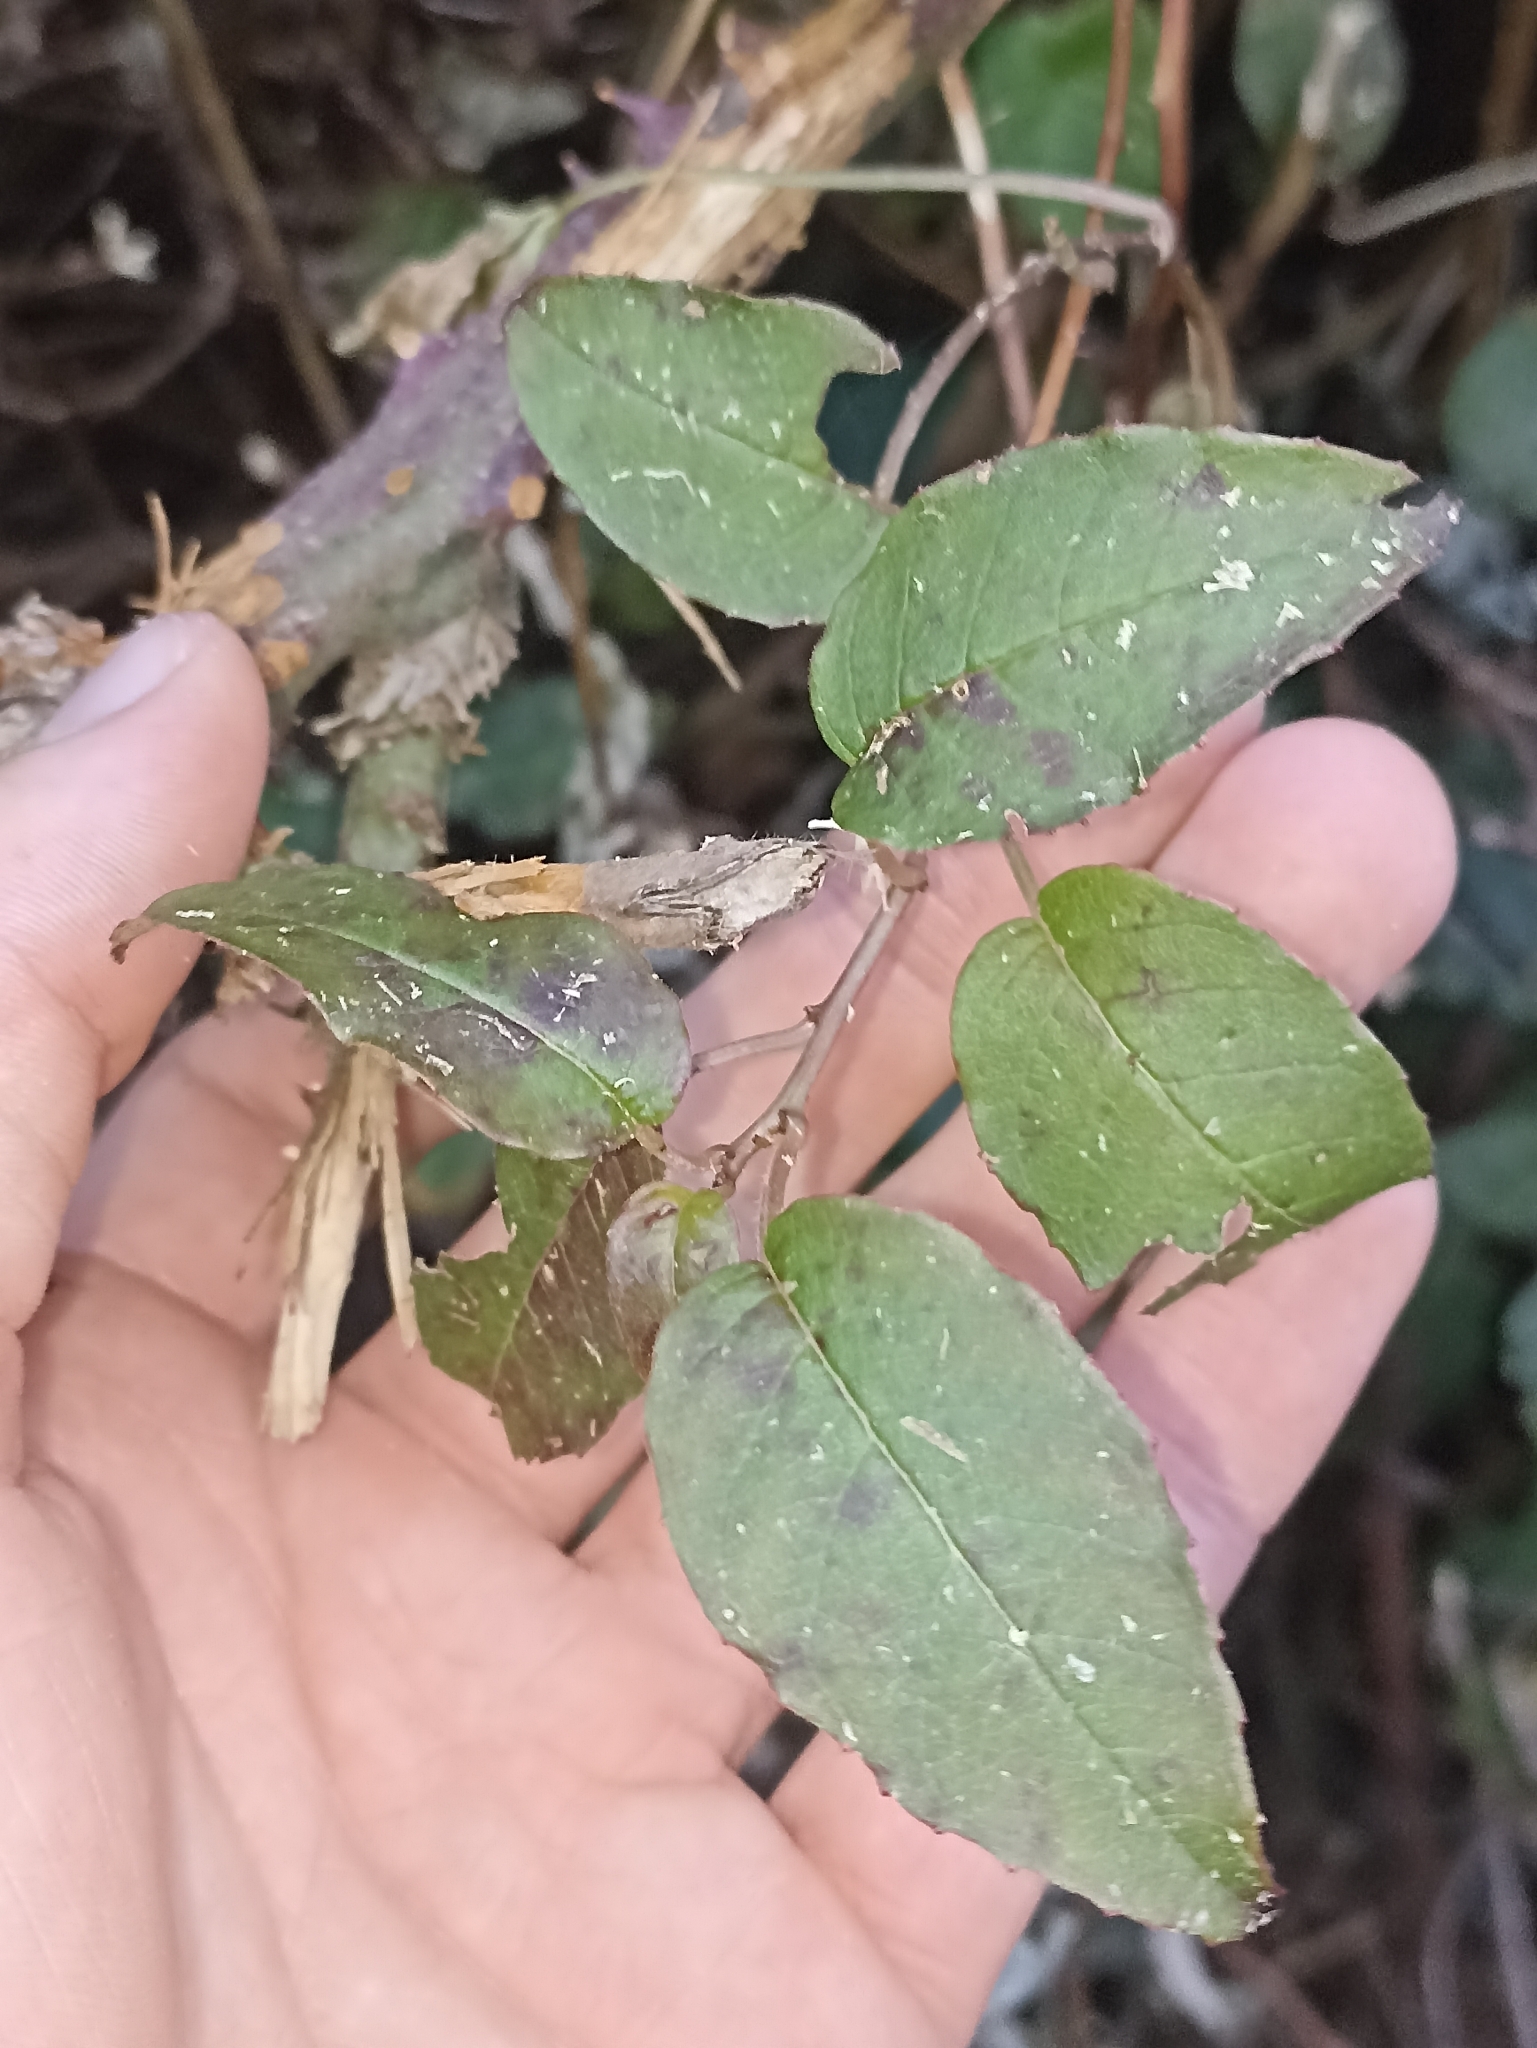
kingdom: Plantae
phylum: Tracheophyta
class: Magnoliopsida
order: Myrtales
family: Onagraceae
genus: Fuchsia
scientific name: Fuchsia colensoi
